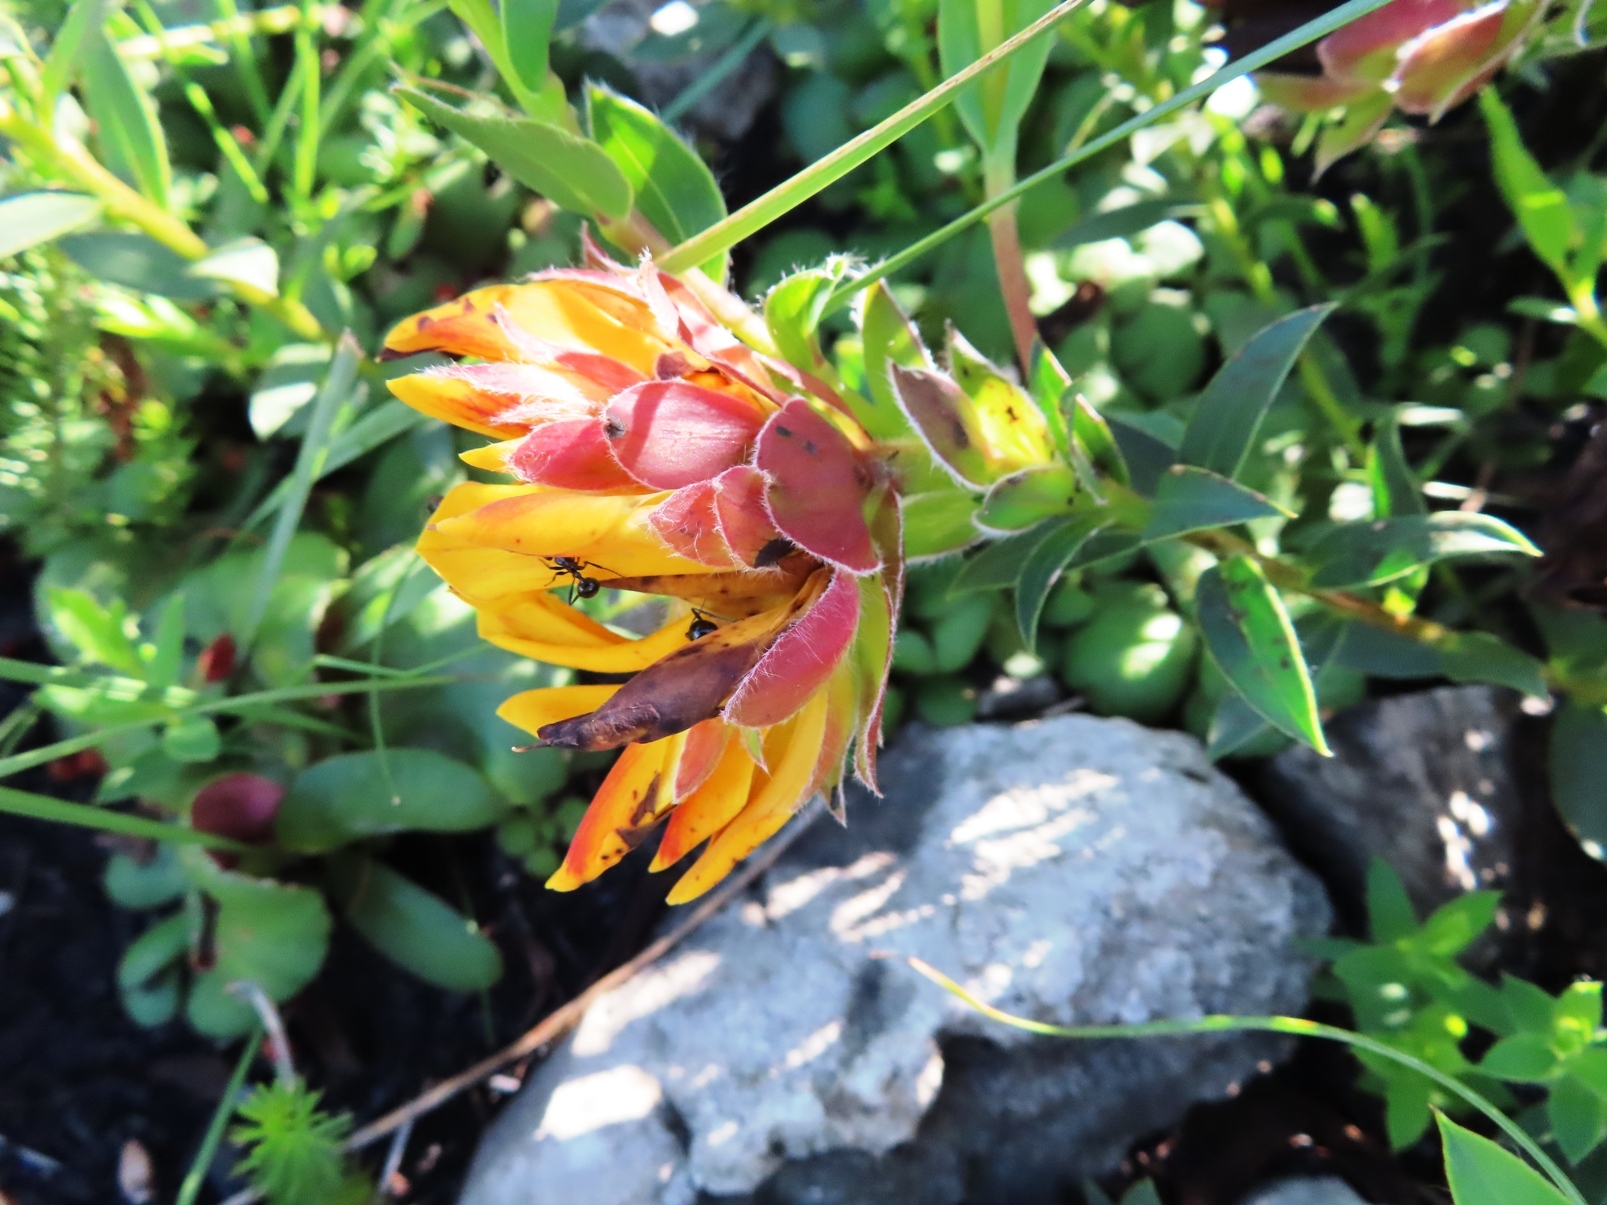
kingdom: Plantae
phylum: Tracheophyta
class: Magnoliopsida
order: Fabales
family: Fabaceae
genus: Liparia
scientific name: Liparia splendens
